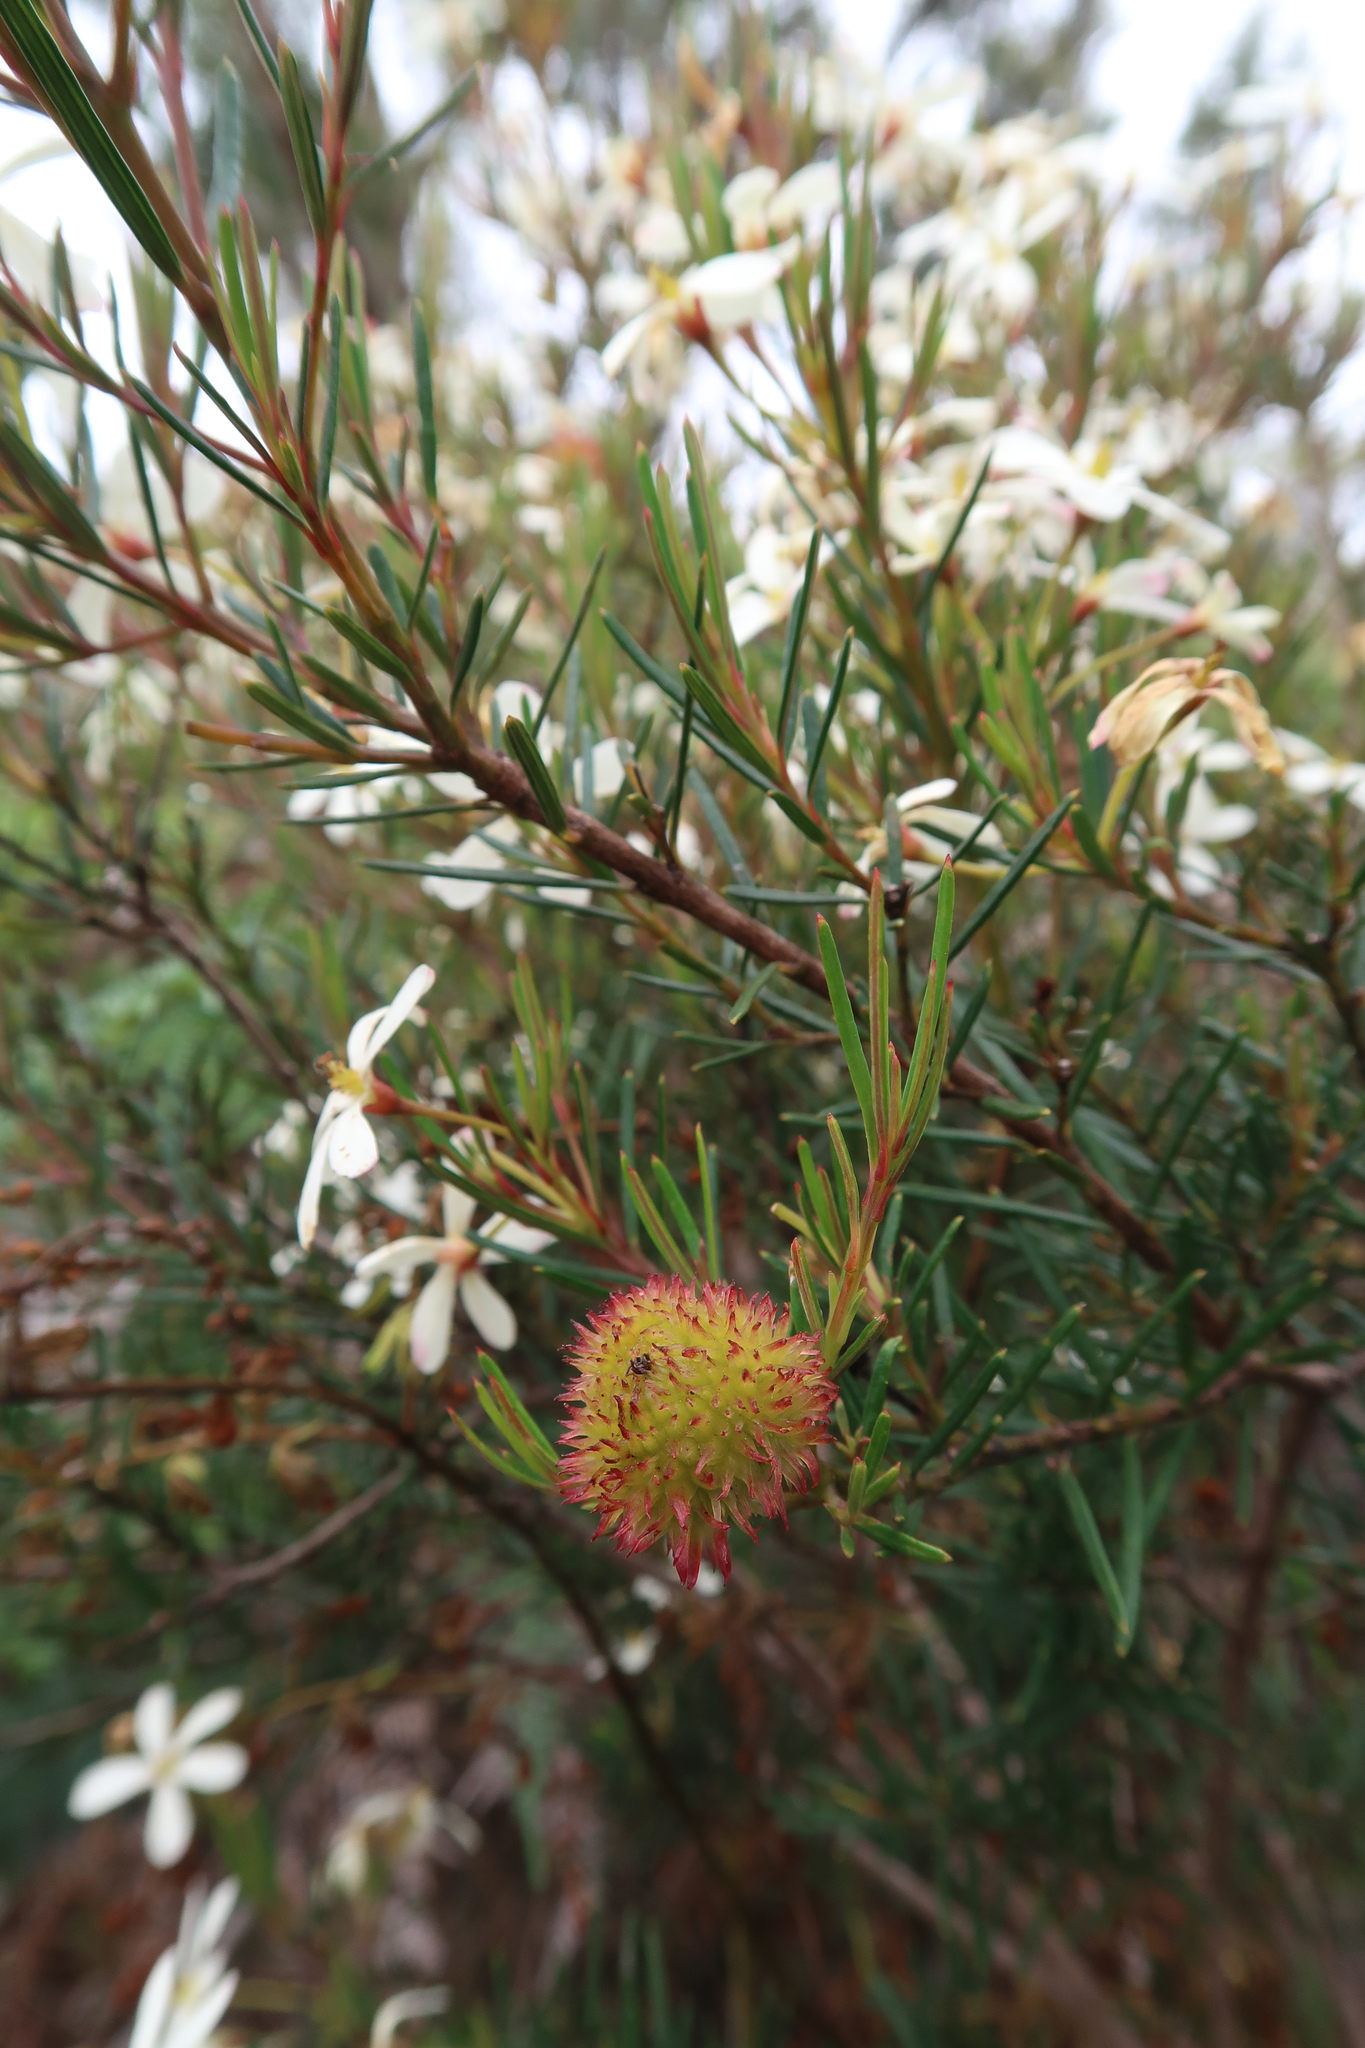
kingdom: Plantae
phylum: Tracheophyta
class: Magnoliopsida
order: Malpighiales
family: Euphorbiaceae
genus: Ricinocarpos
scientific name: Ricinocarpos pinifolius
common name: Weddingbush
